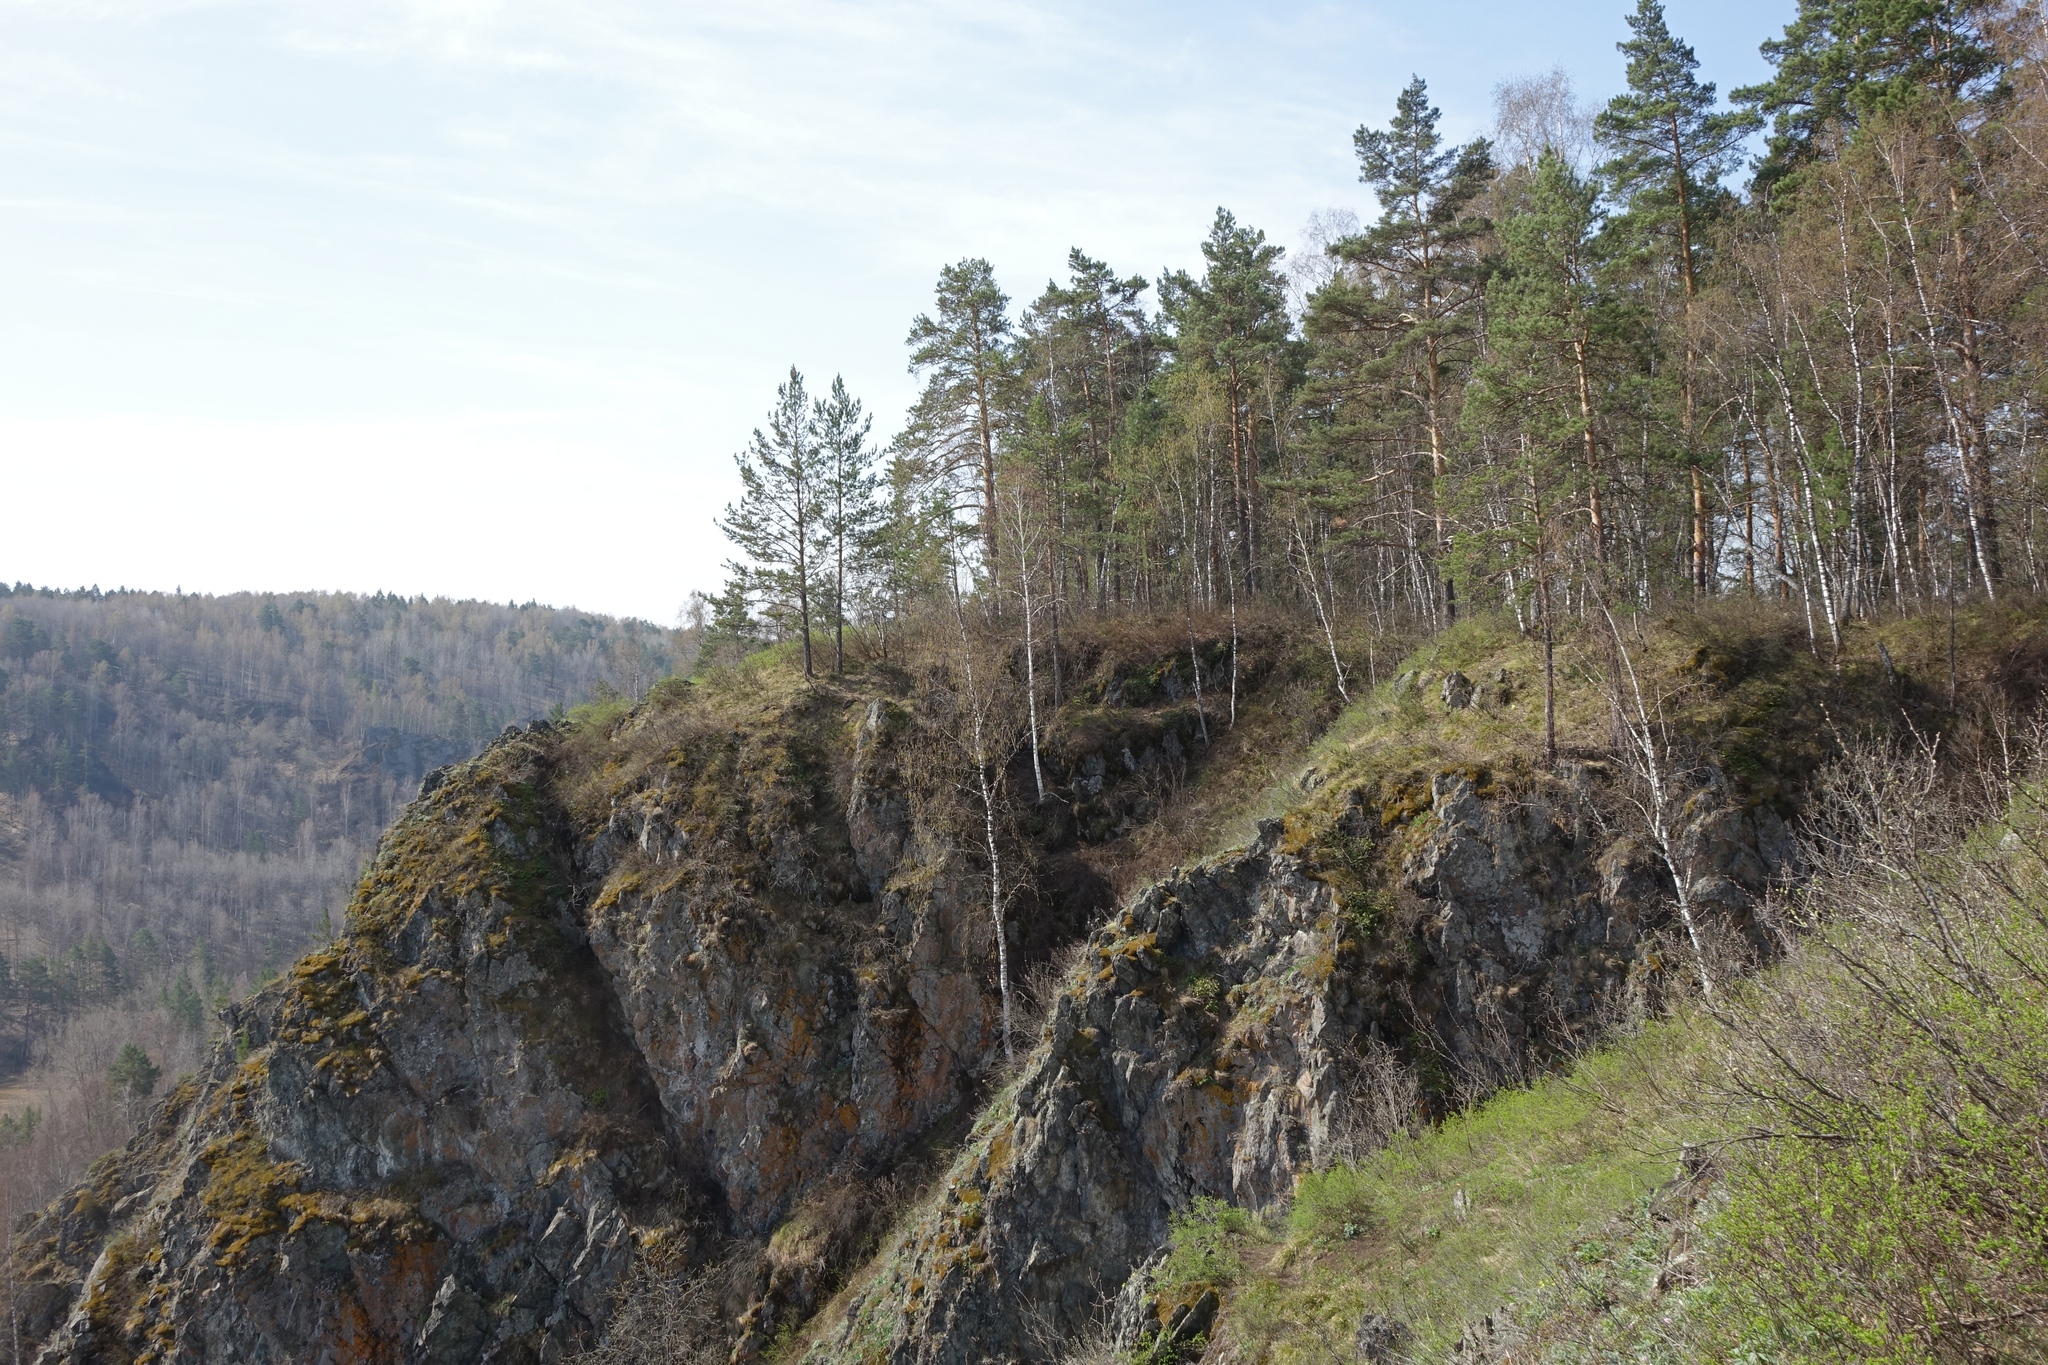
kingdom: Plantae
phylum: Tracheophyta
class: Pinopsida
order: Pinales
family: Pinaceae
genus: Pinus
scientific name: Pinus sylvestris
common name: Scots pine
